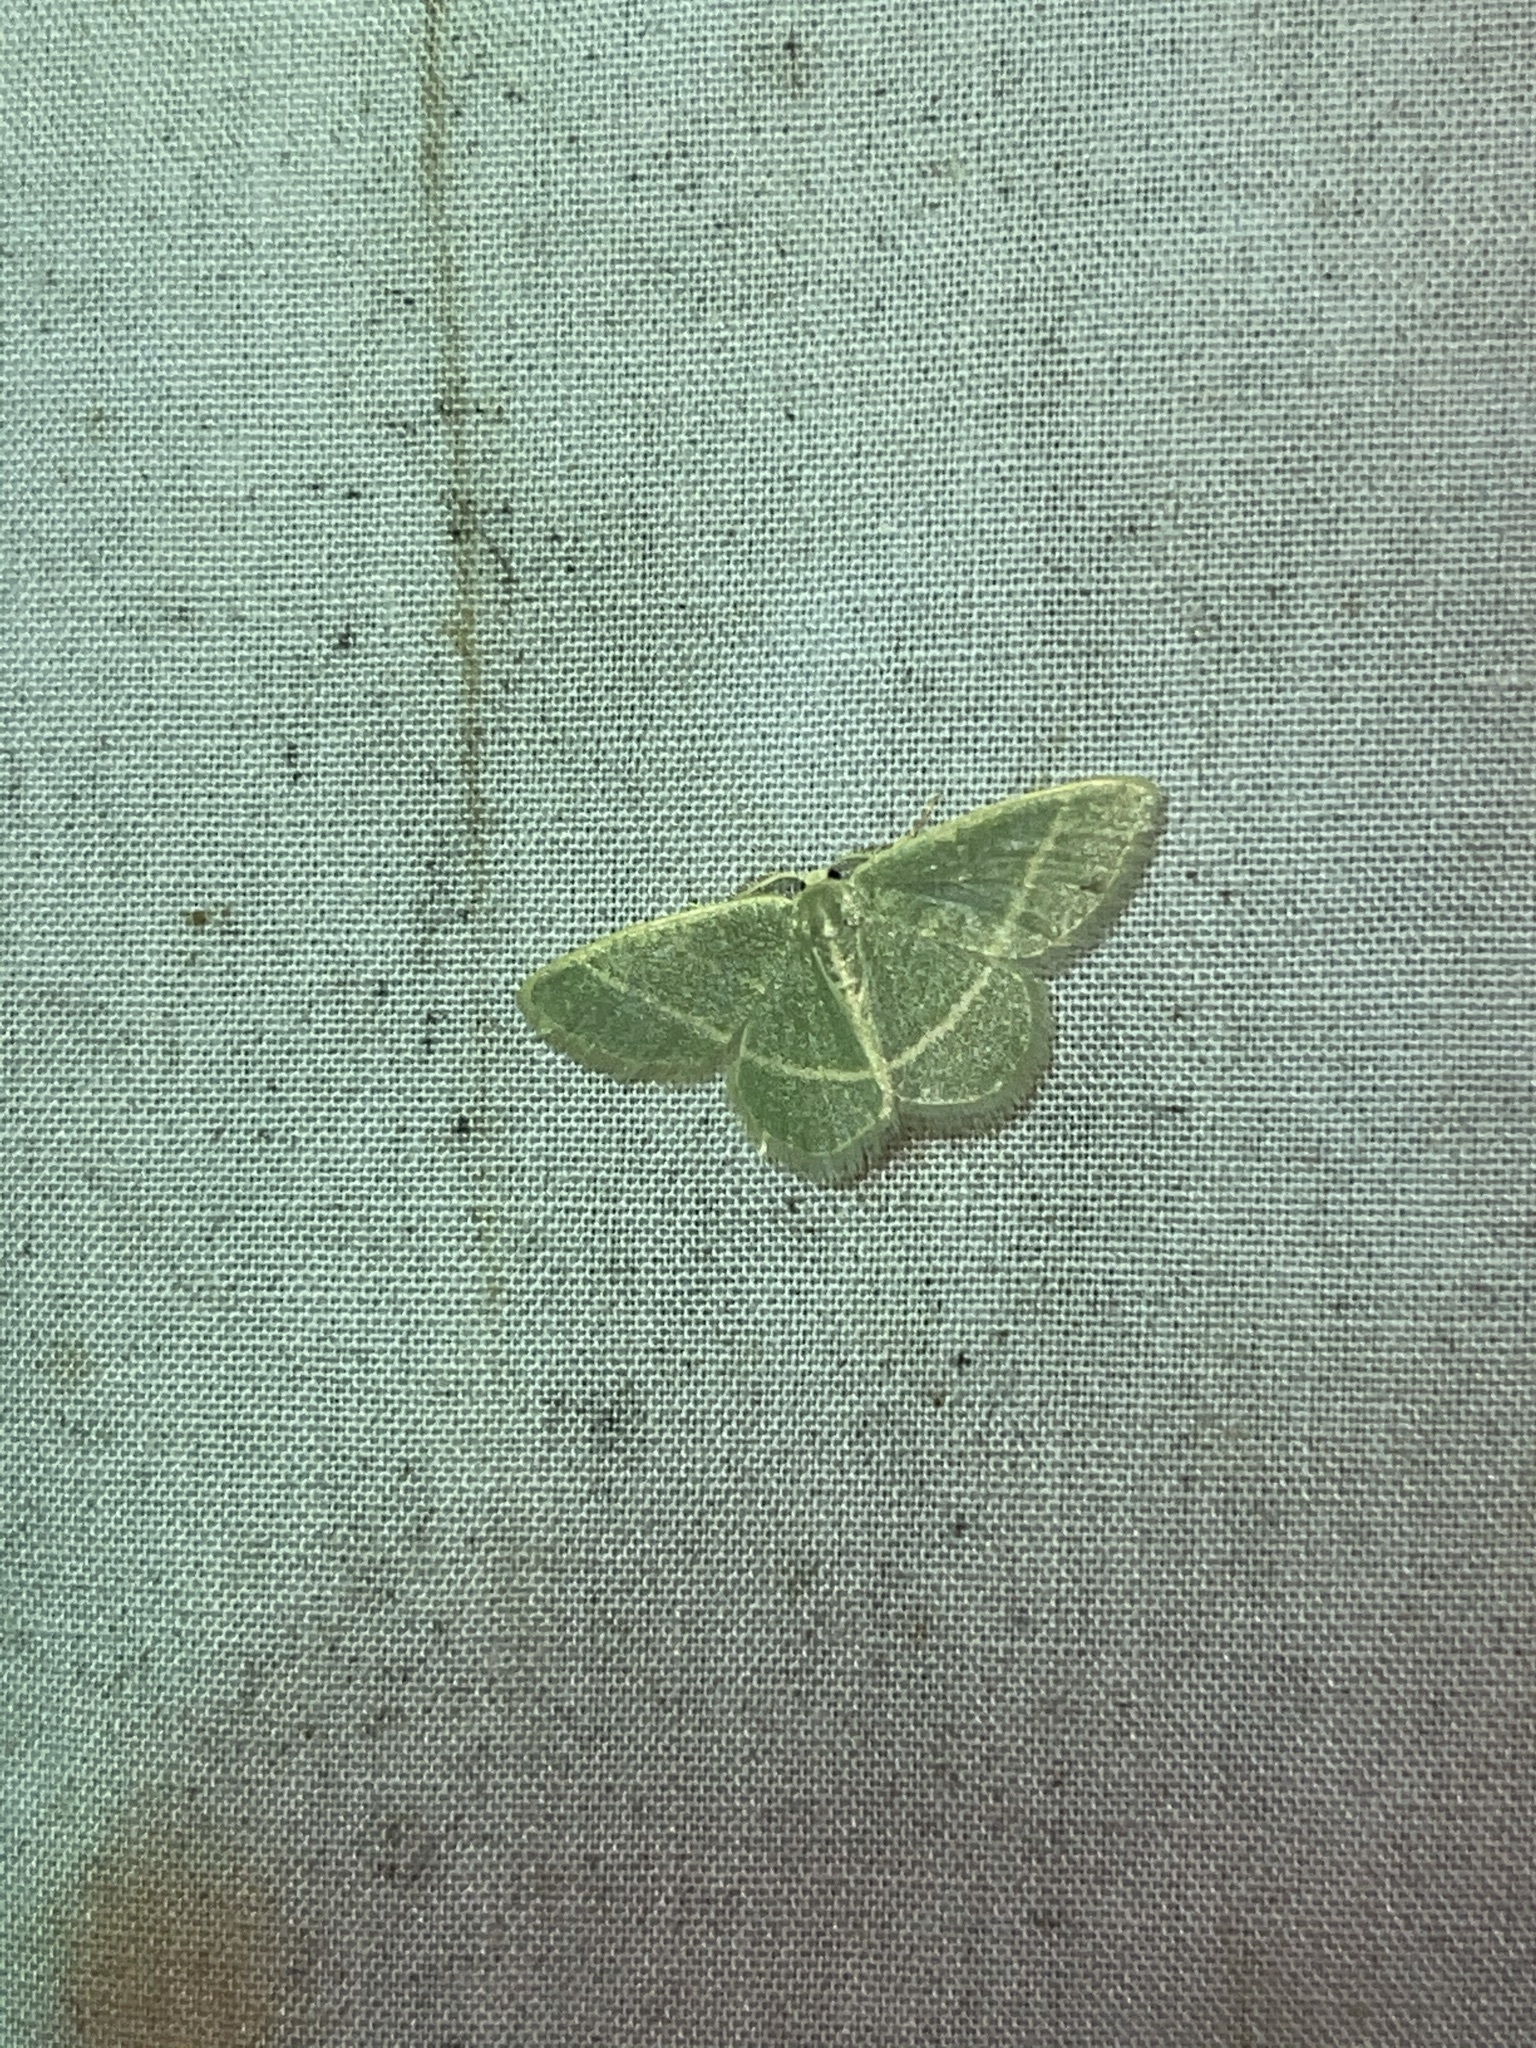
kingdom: Animalia
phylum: Arthropoda
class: Insecta
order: Lepidoptera
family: Geometridae
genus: Chlorochlamys
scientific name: Chlorochlamys chloroleucaria
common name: Blackberry looper
